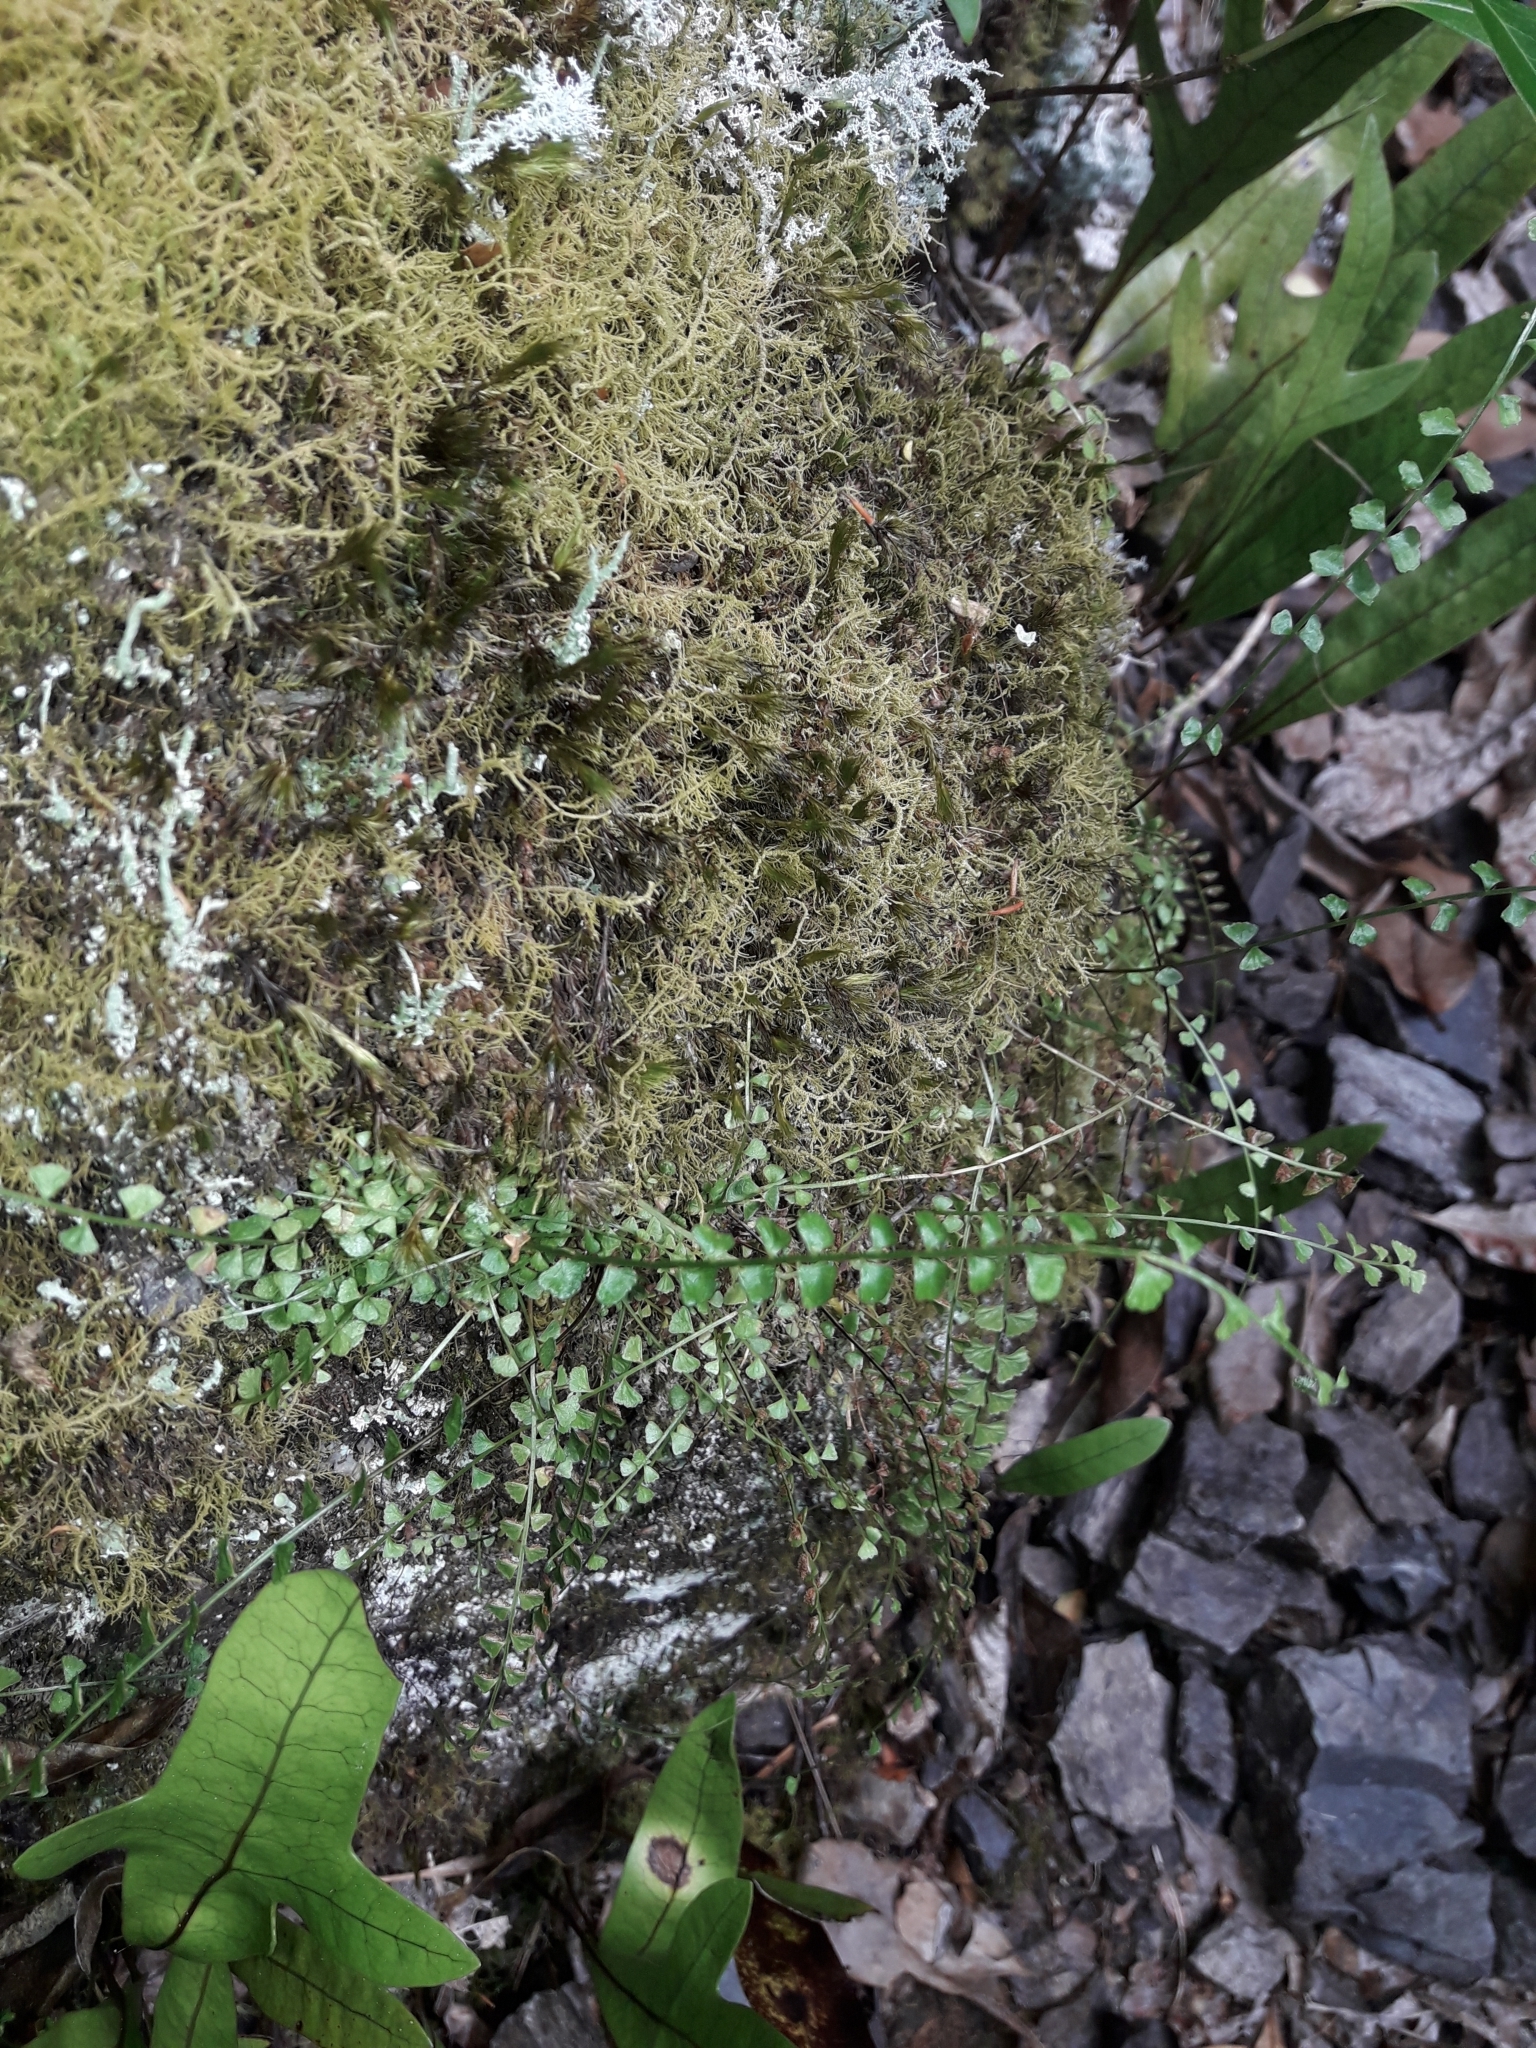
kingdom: Plantae
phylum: Tracheophyta
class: Polypodiopsida
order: Polypodiales
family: Aspleniaceae
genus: Asplenium
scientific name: Asplenium flabellifolium
